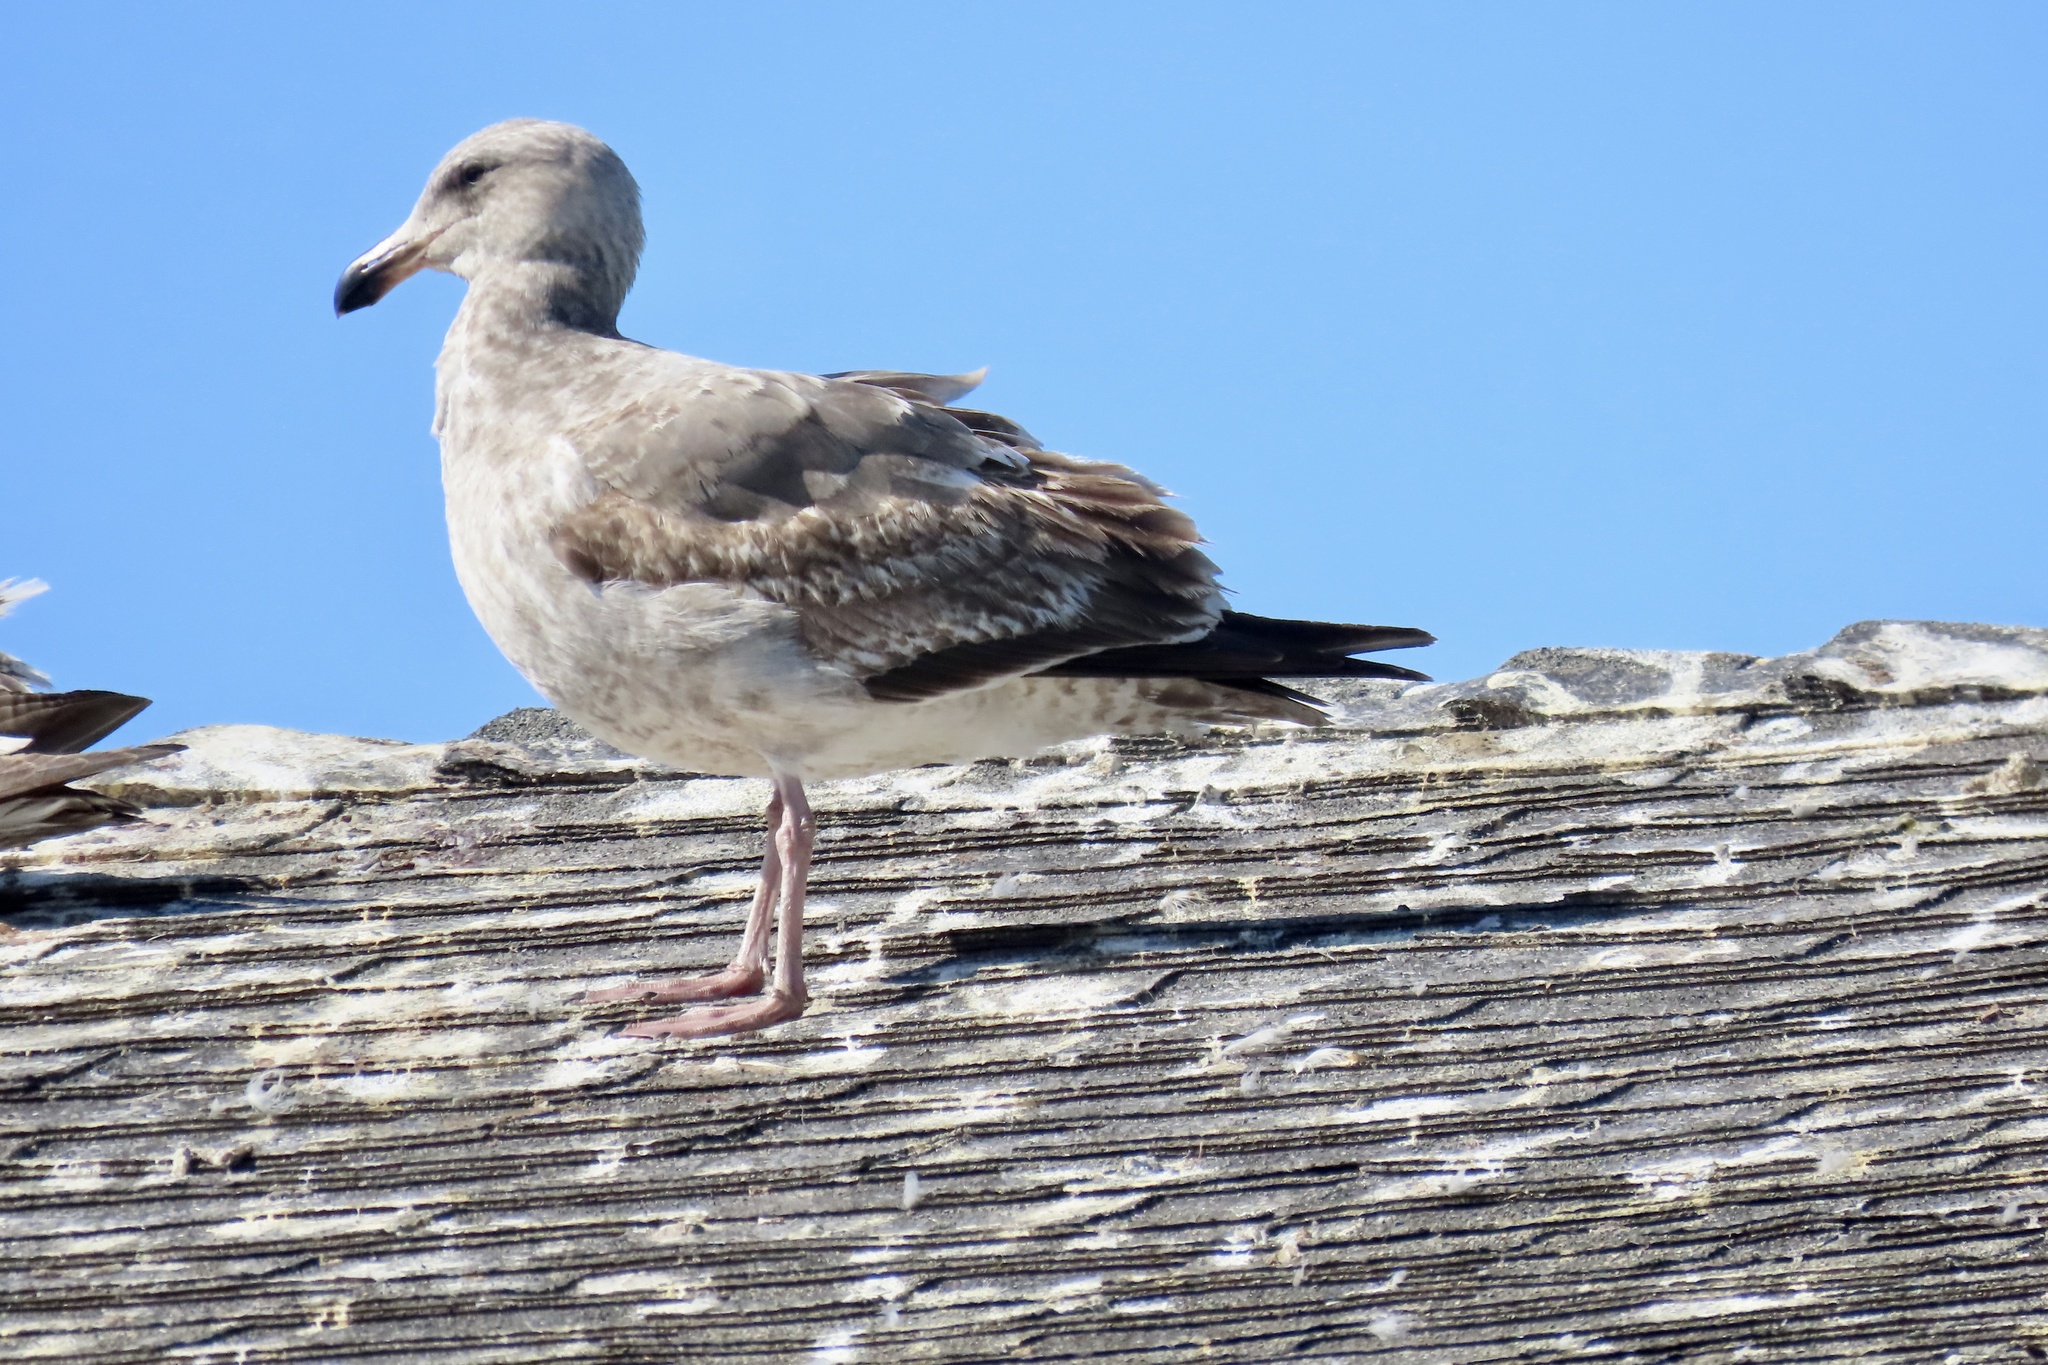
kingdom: Animalia
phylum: Chordata
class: Aves
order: Charadriiformes
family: Laridae
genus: Larus
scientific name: Larus occidentalis
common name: Western gull
